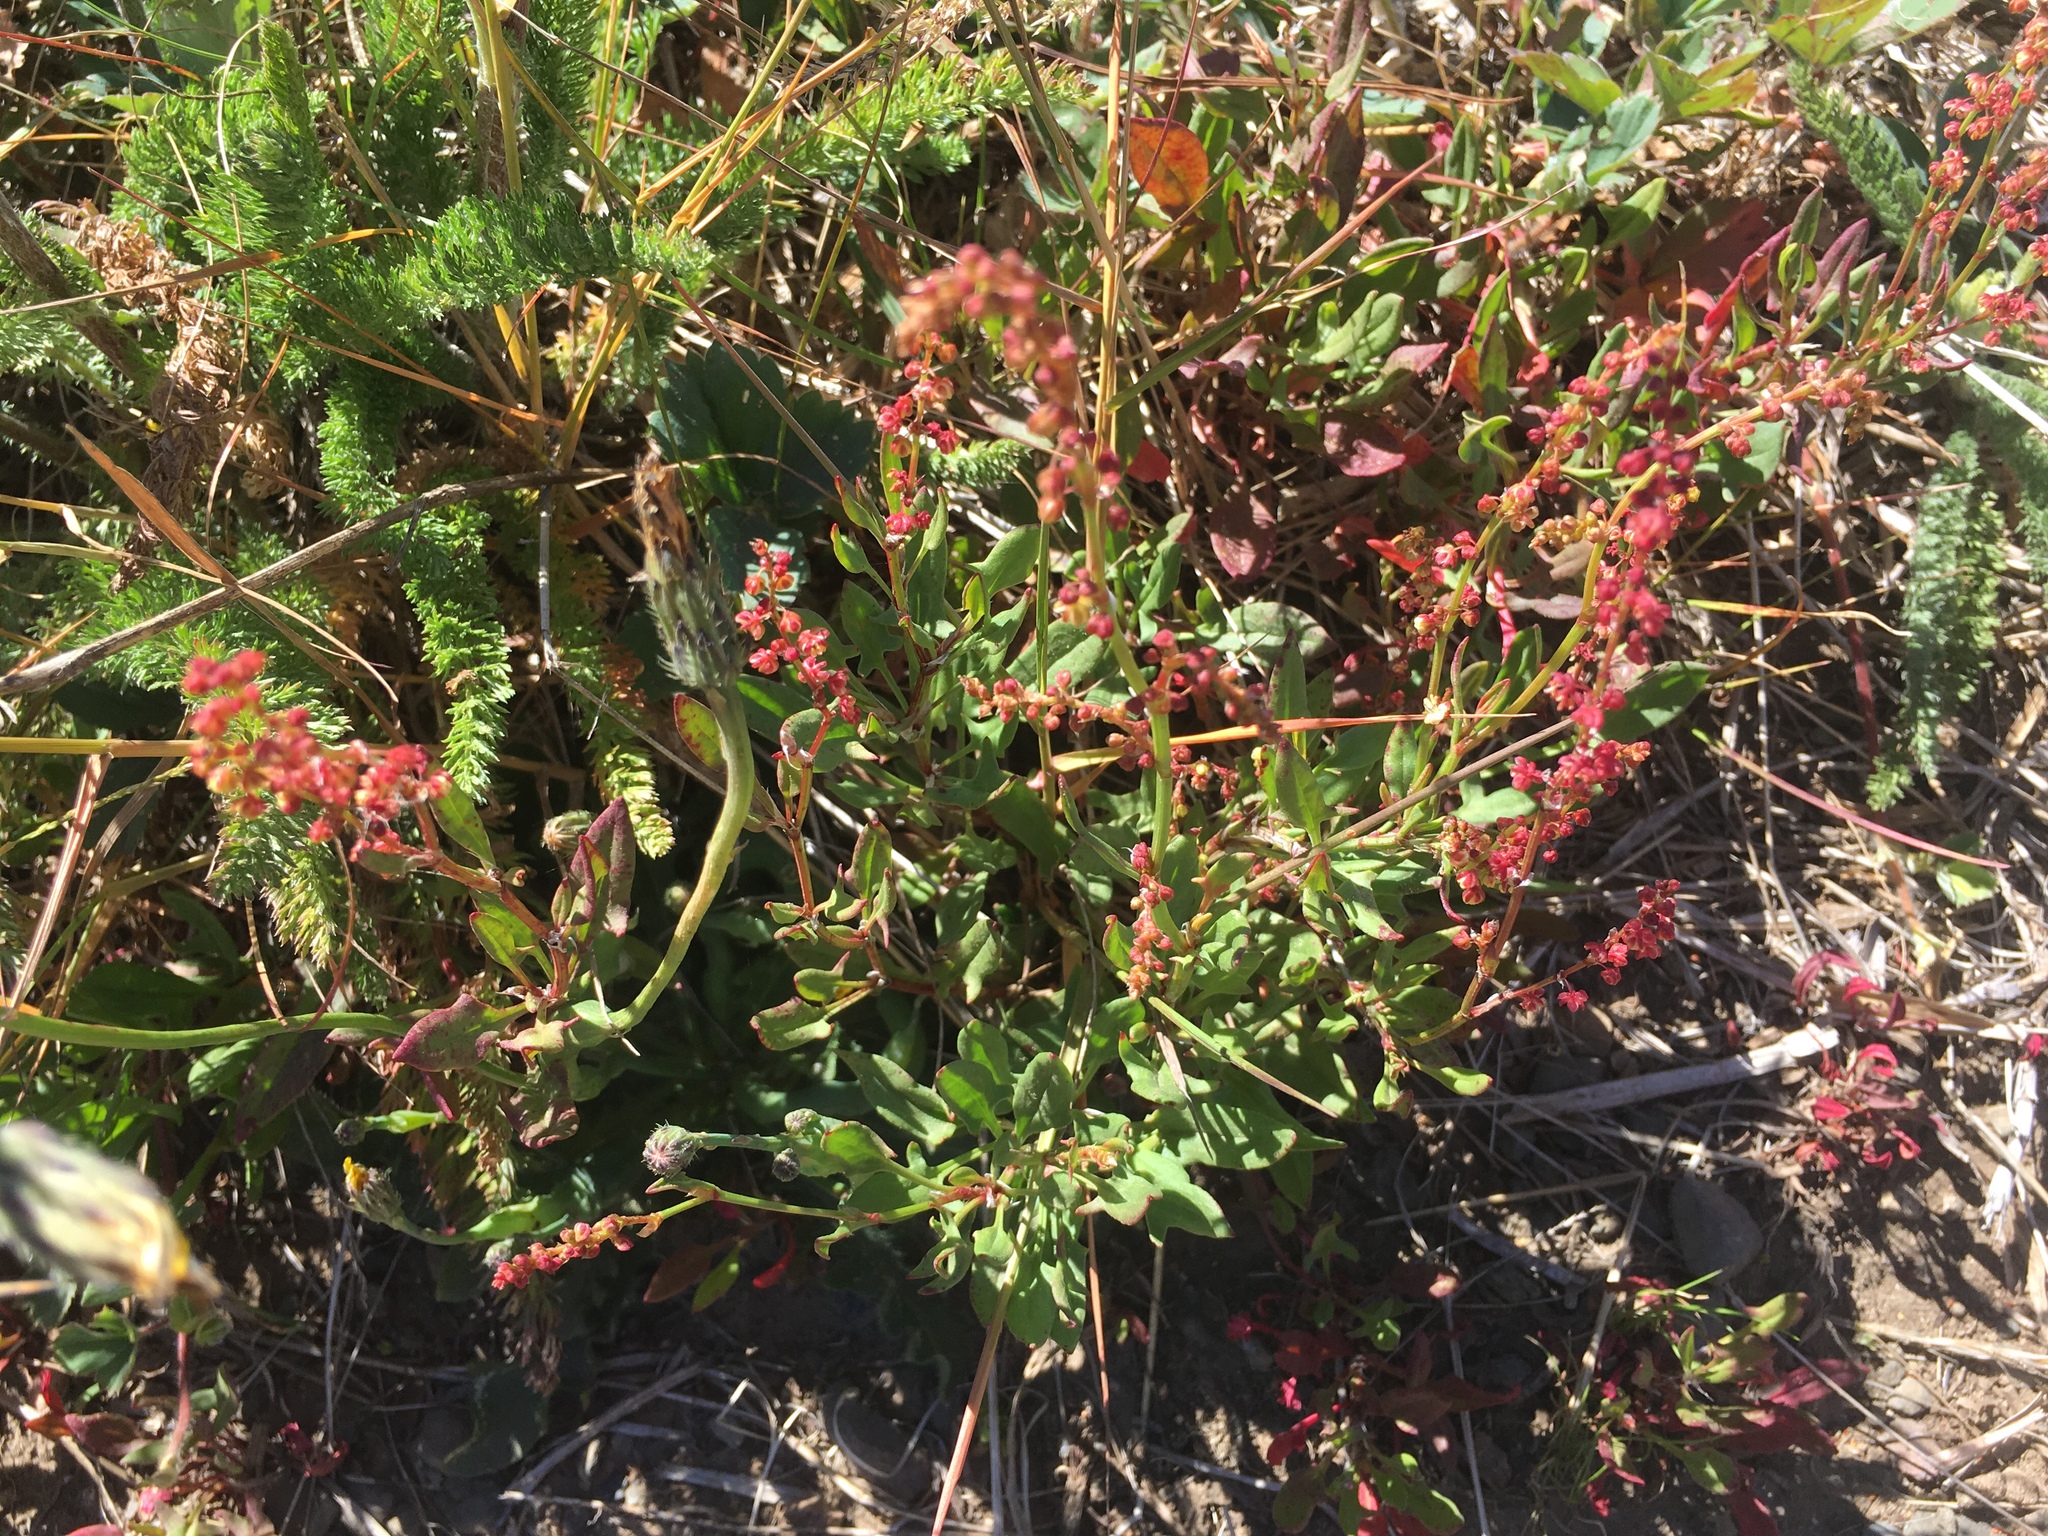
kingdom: Plantae
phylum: Tracheophyta
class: Magnoliopsida
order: Caryophyllales
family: Polygonaceae
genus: Rumex
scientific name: Rumex acetosella
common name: Common sheep sorrel
